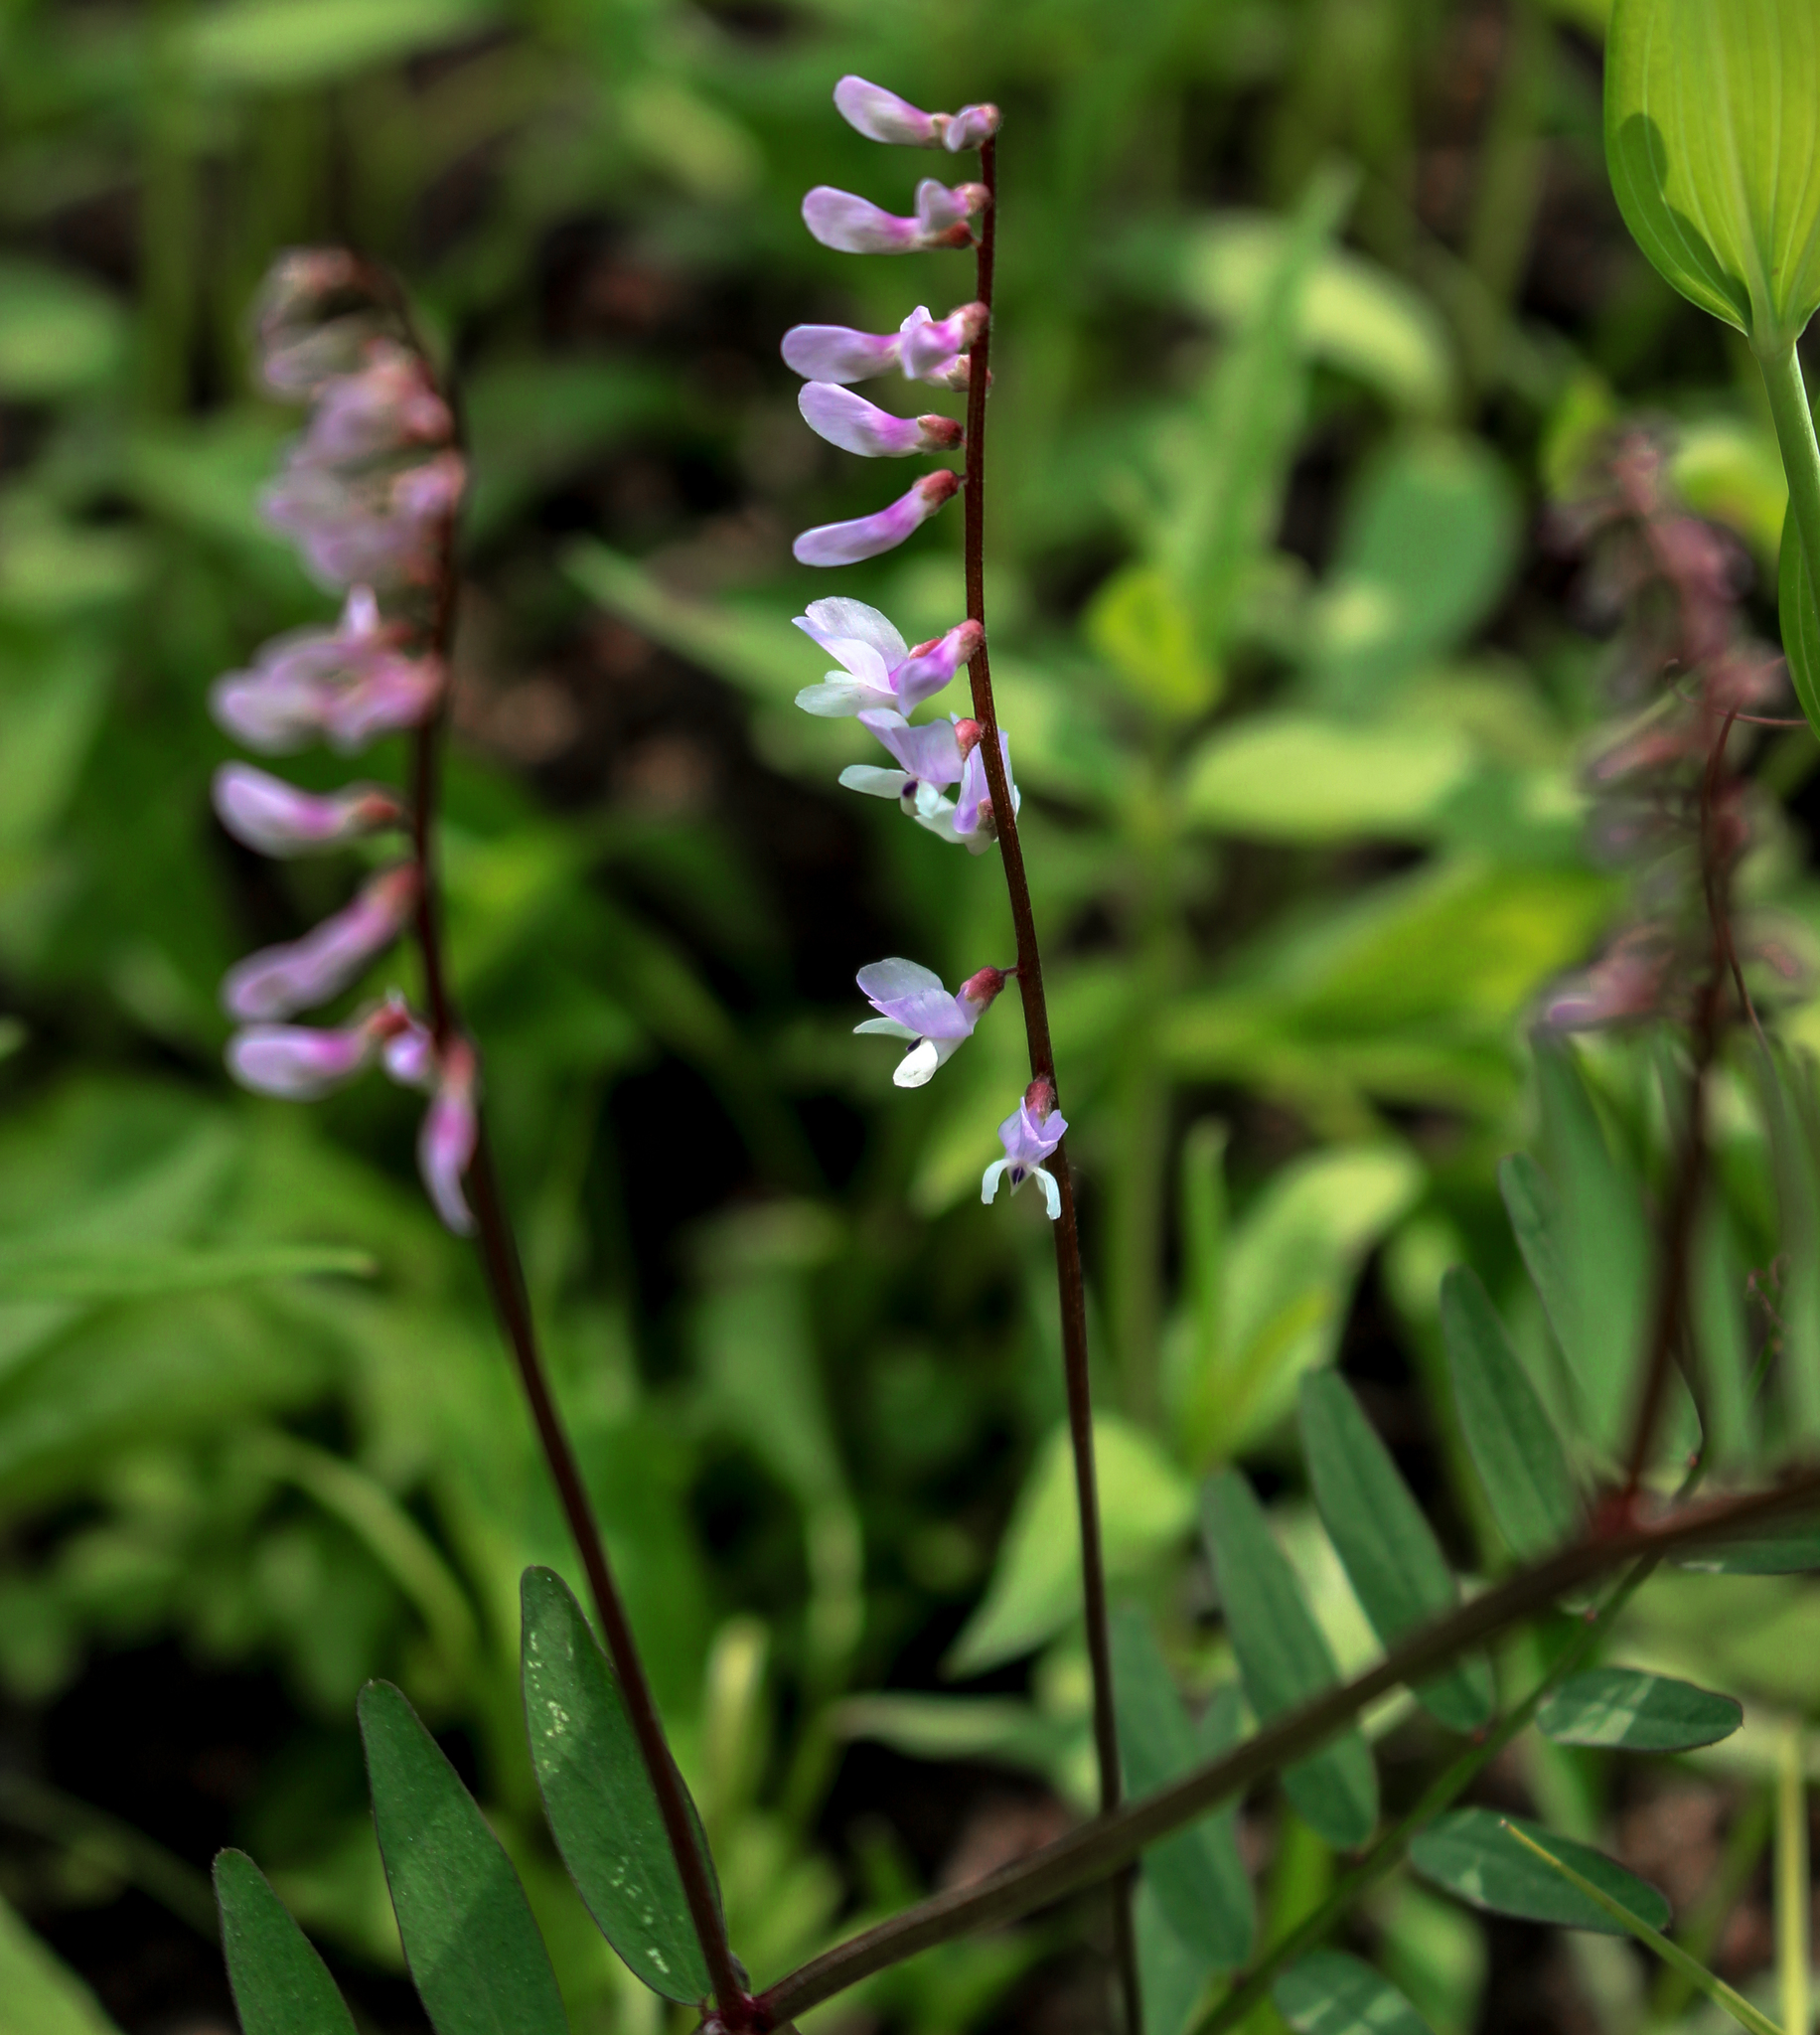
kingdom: Plantae
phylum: Tracheophyta
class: Magnoliopsida
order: Fabales
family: Fabaceae
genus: Vicia
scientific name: Vicia caroliniana
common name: Carolina vetch
